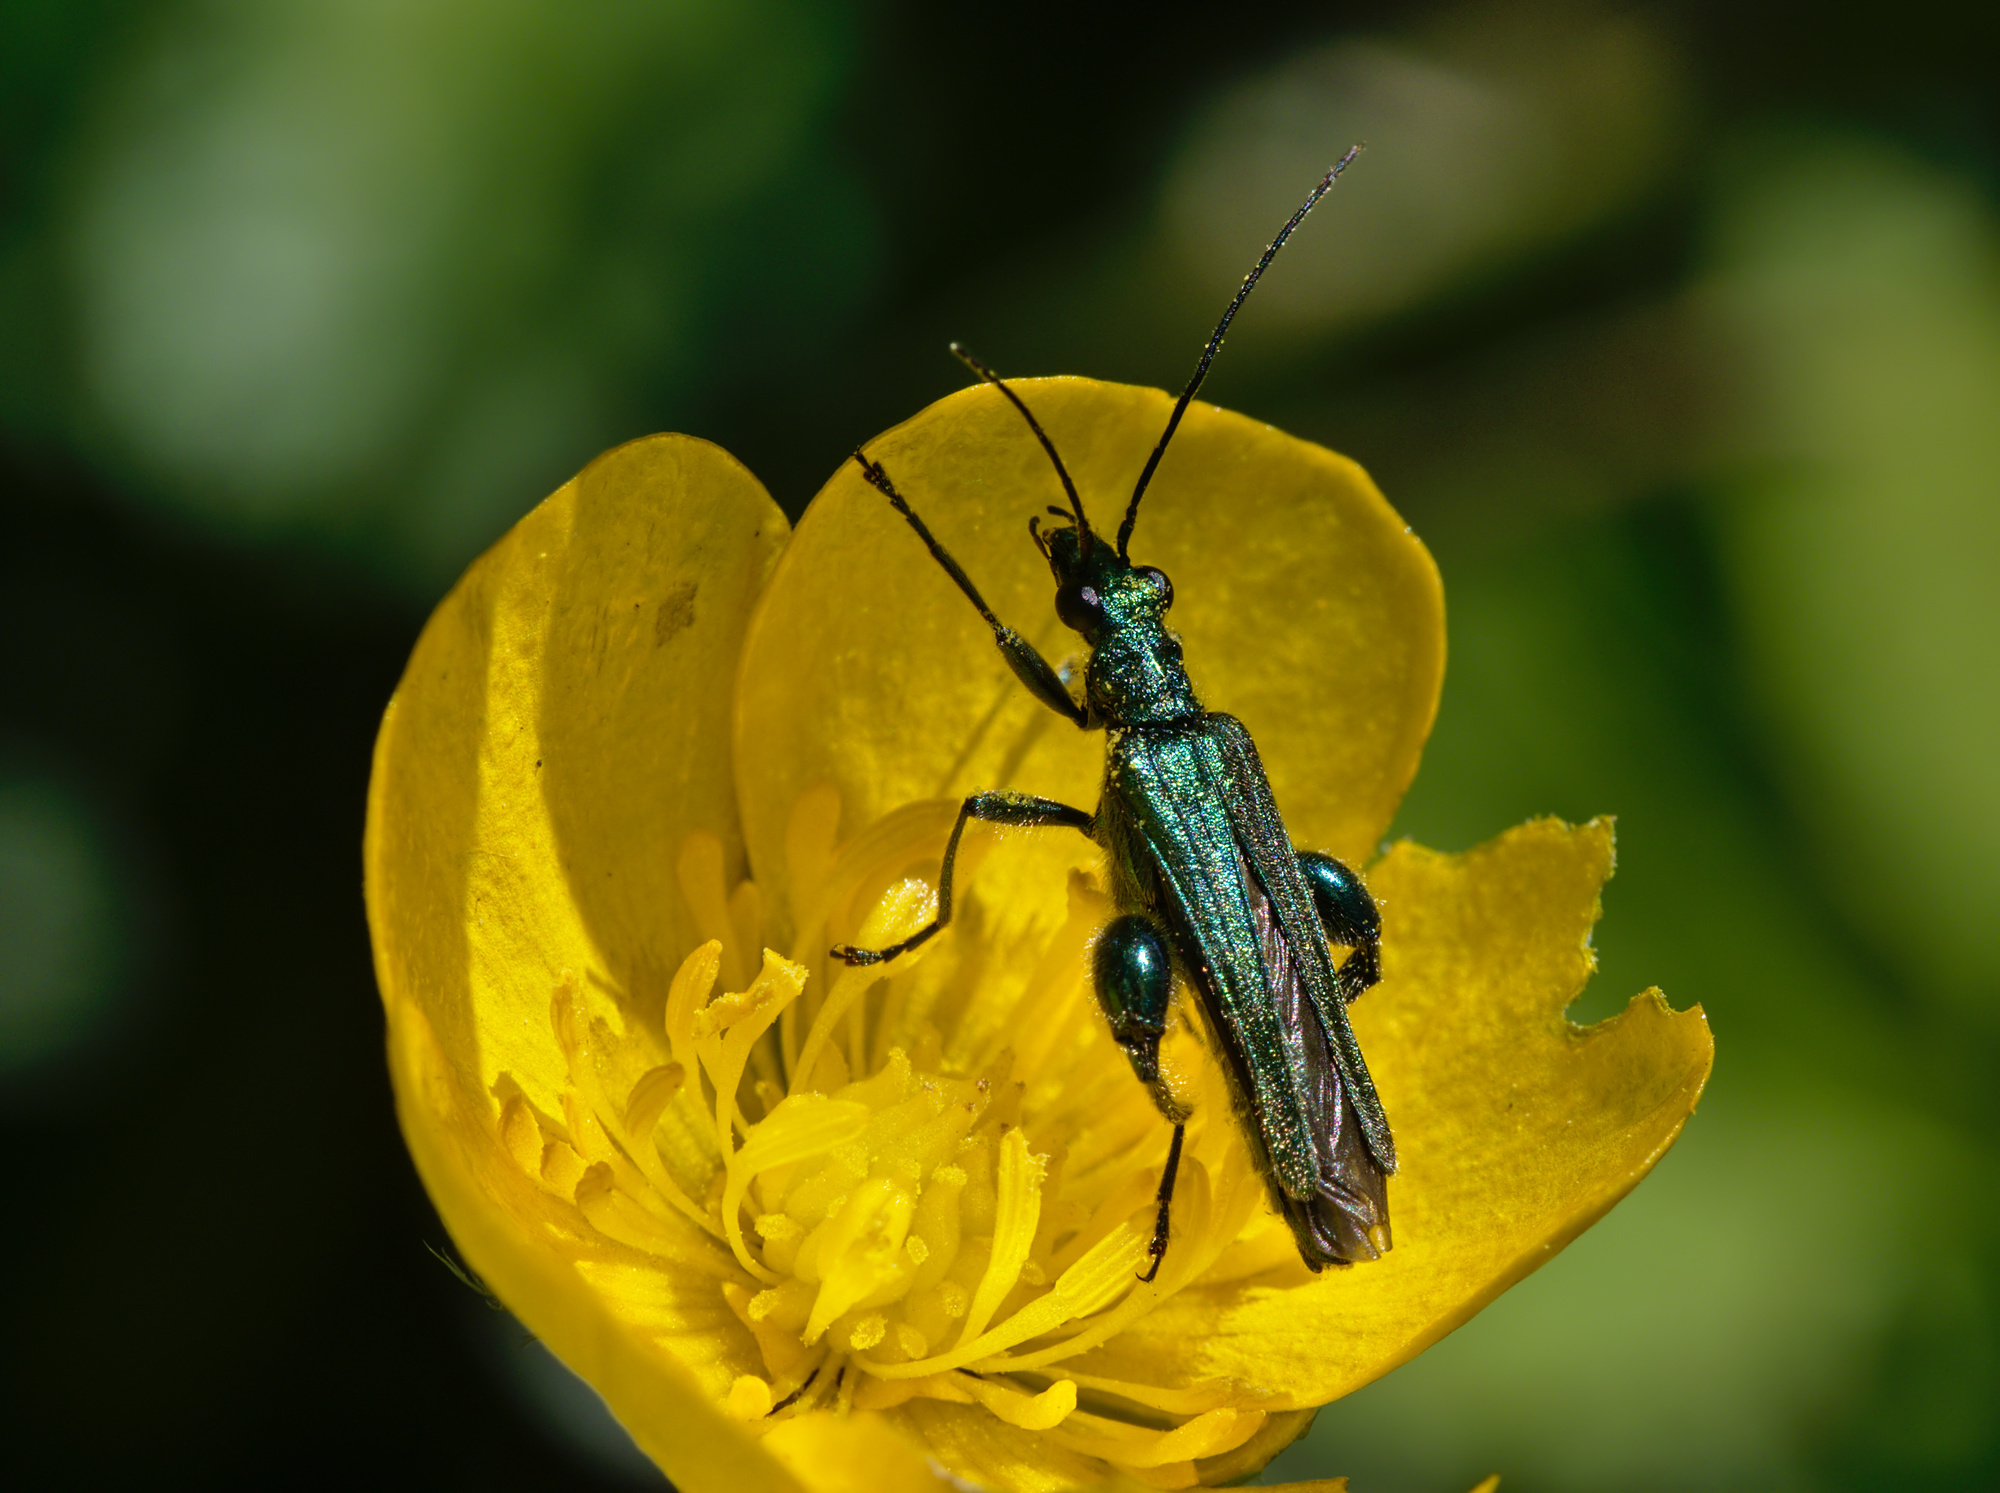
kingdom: Animalia
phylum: Arthropoda
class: Insecta
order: Coleoptera
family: Oedemeridae
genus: Oedemera
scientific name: Oedemera nobilis
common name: Swollen-thighed beetle
